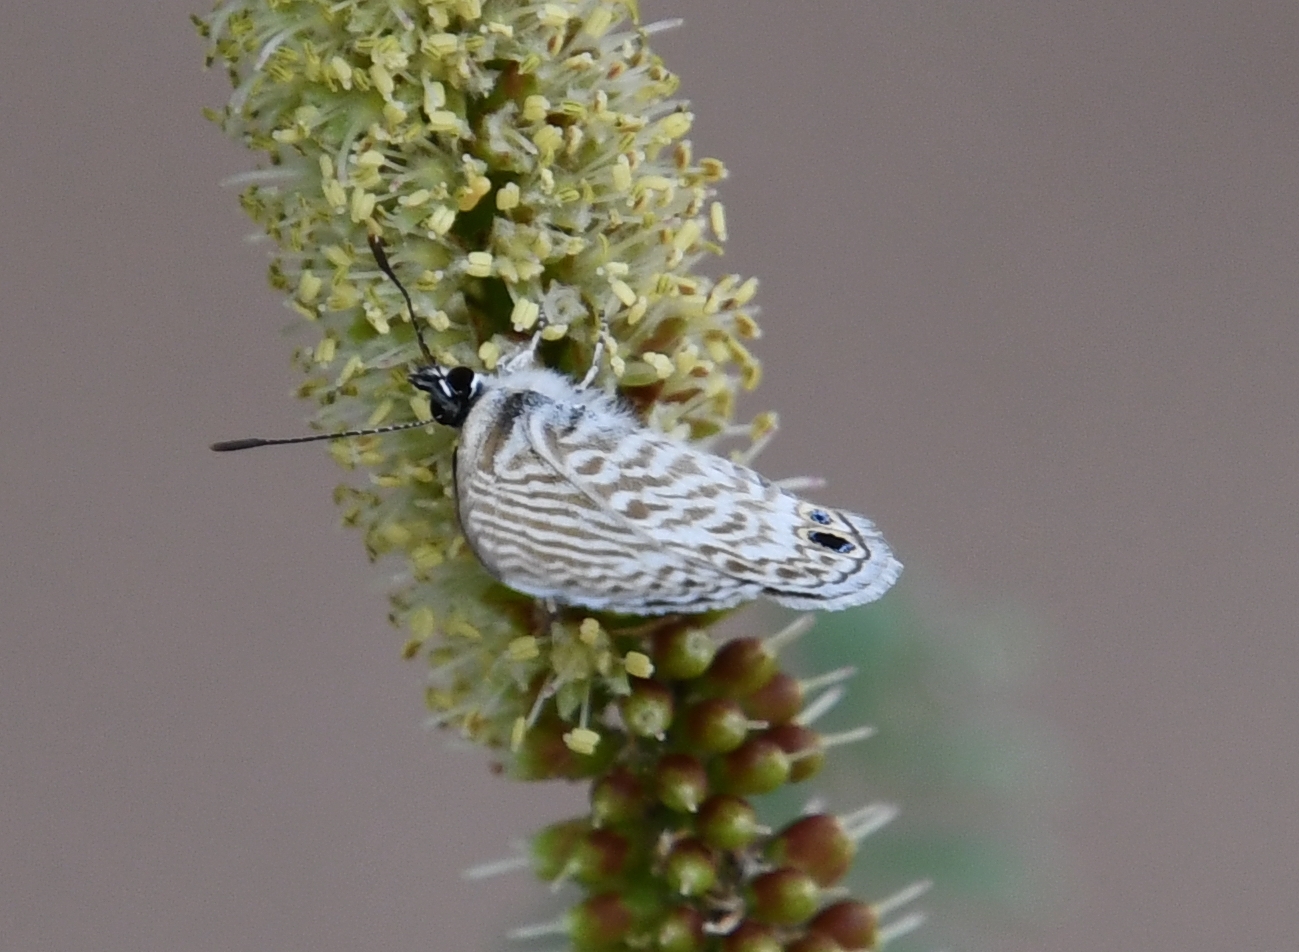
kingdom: Animalia
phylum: Arthropoda
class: Insecta
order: Lepidoptera
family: Lycaenidae
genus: Leptotes
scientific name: Leptotes marina
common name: Marine blue
